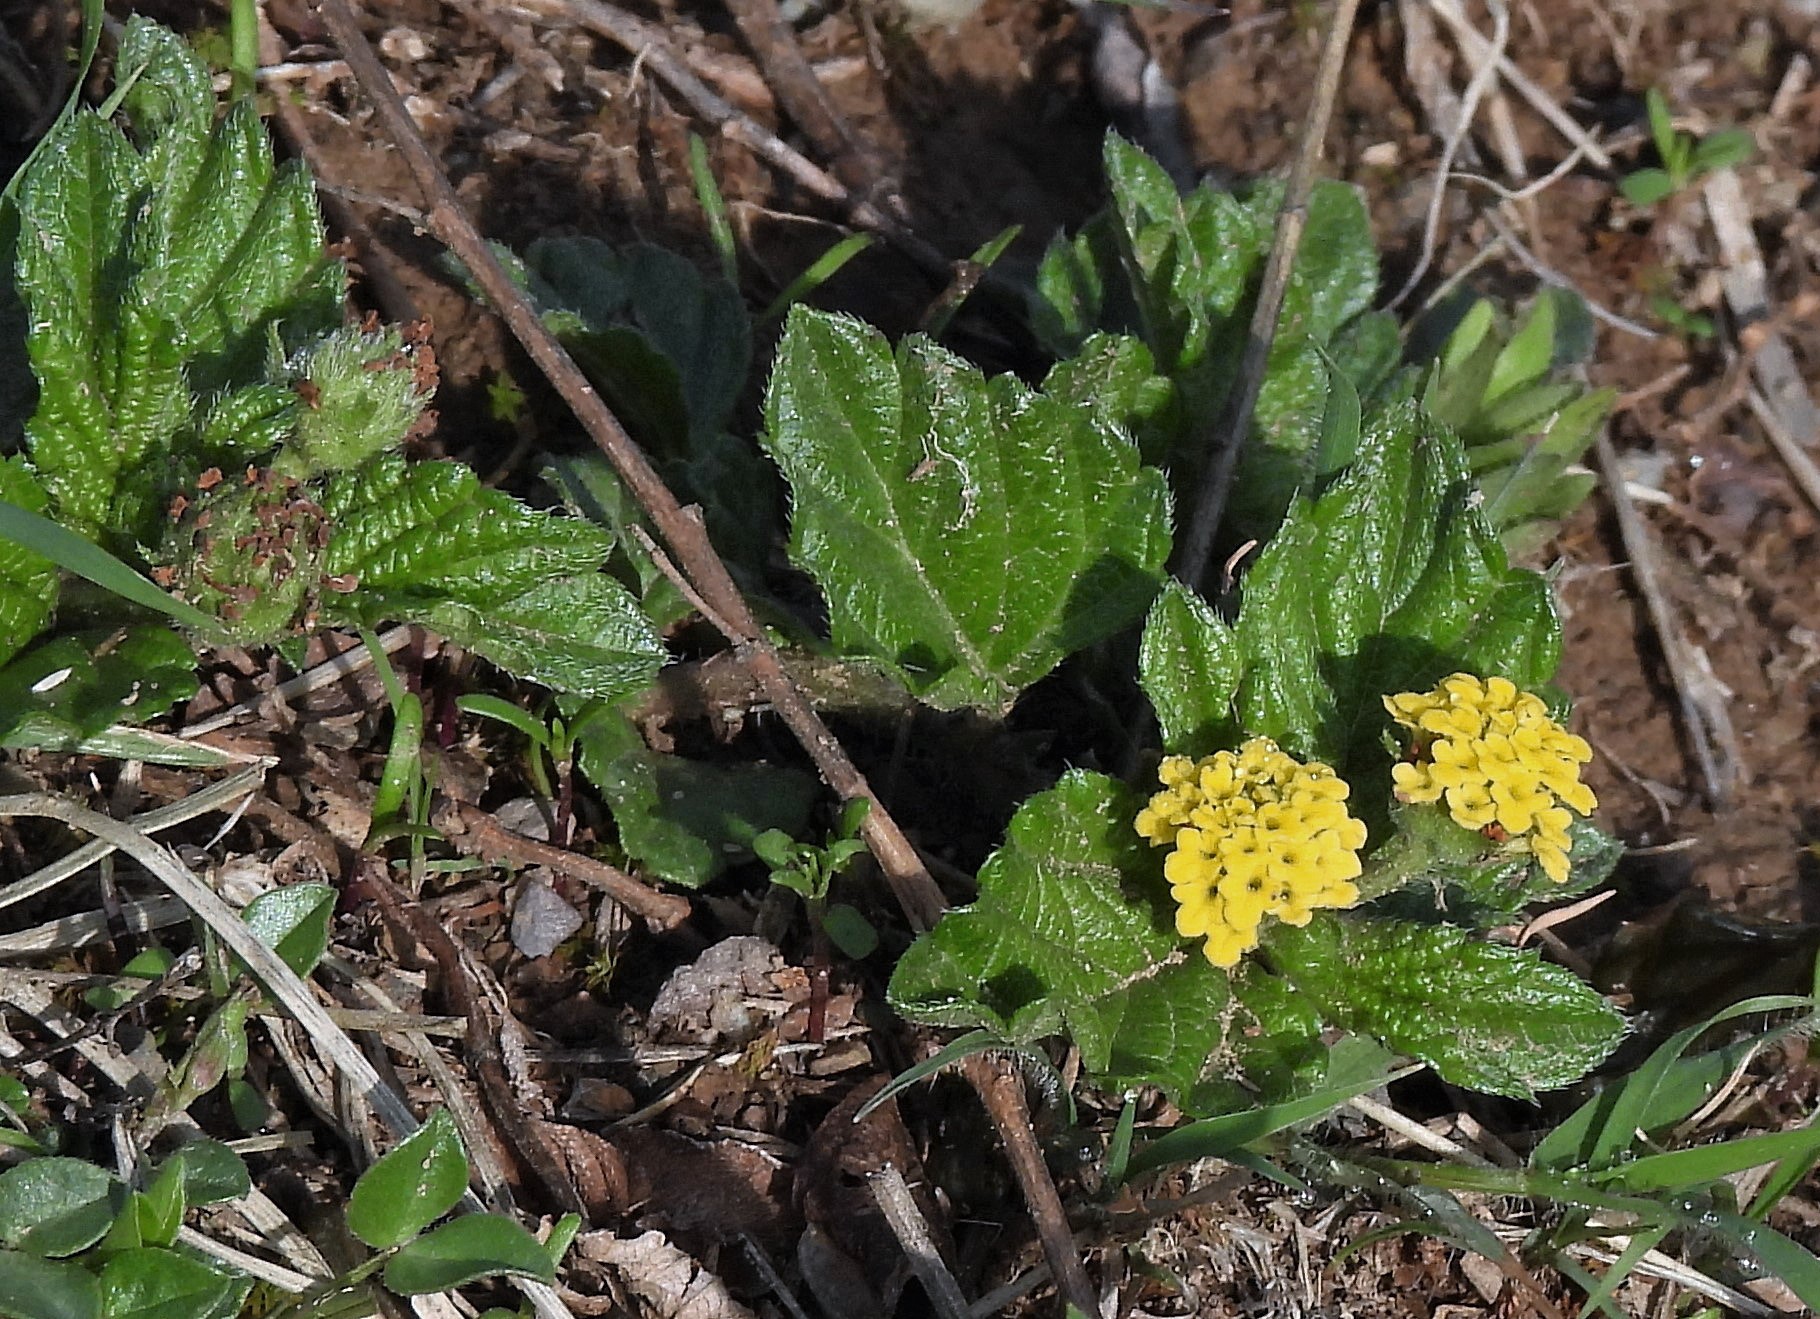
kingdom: Plantae
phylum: Tracheophyta
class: Magnoliopsida
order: Lamiales
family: Verbenaceae
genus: Lippia
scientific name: Lippia turnerifolia
